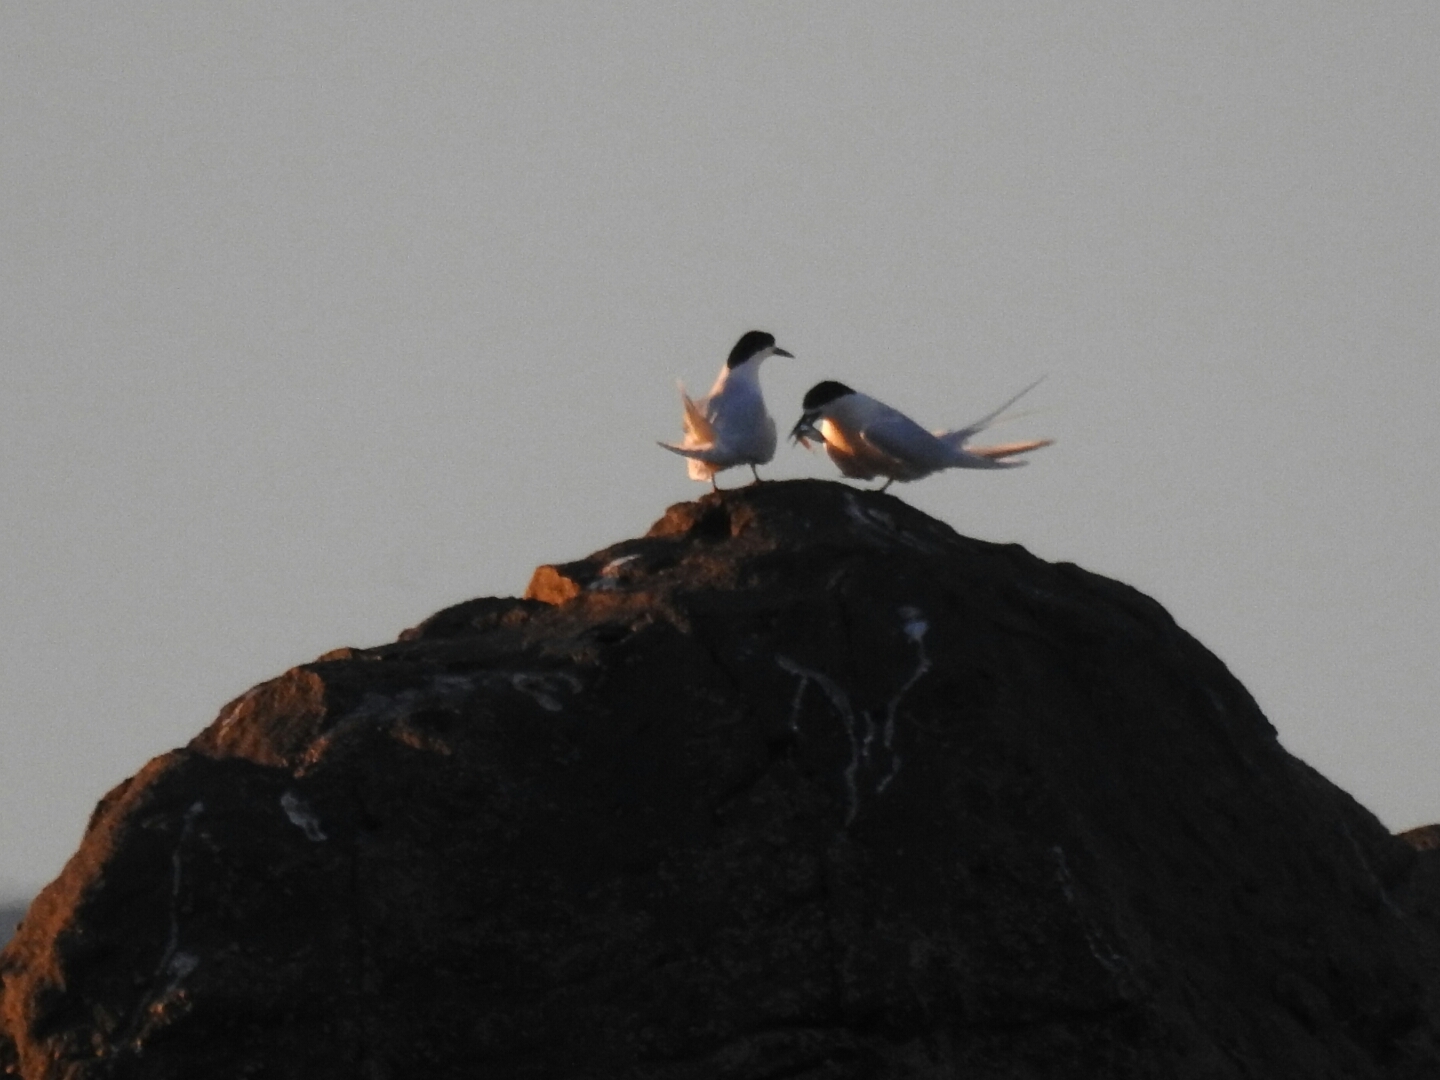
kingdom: Animalia
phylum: Chordata
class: Aves
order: Charadriiformes
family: Laridae
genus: Sterna
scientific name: Sterna striata
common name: White-fronted tern
